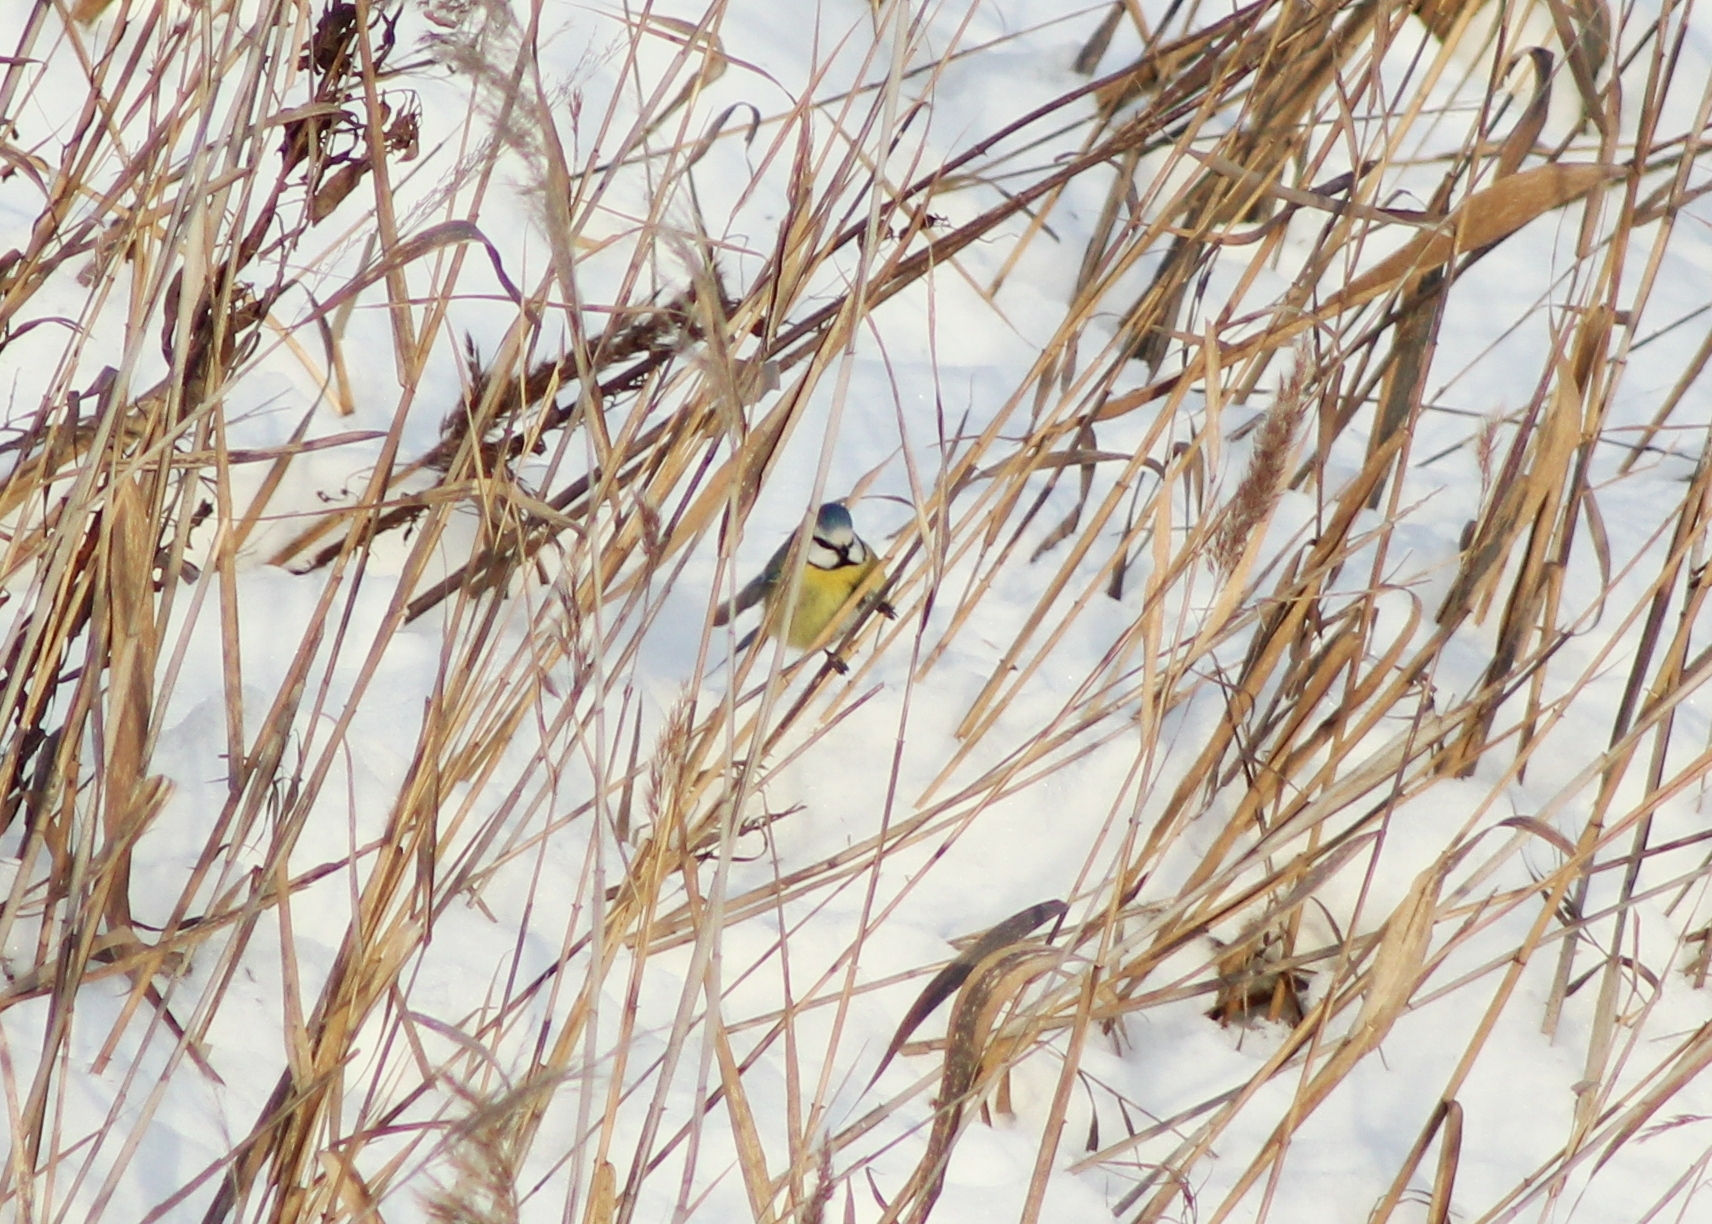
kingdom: Animalia
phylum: Chordata
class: Aves
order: Passeriformes
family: Paridae
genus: Cyanistes
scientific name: Cyanistes caeruleus
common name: Eurasian blue tit
